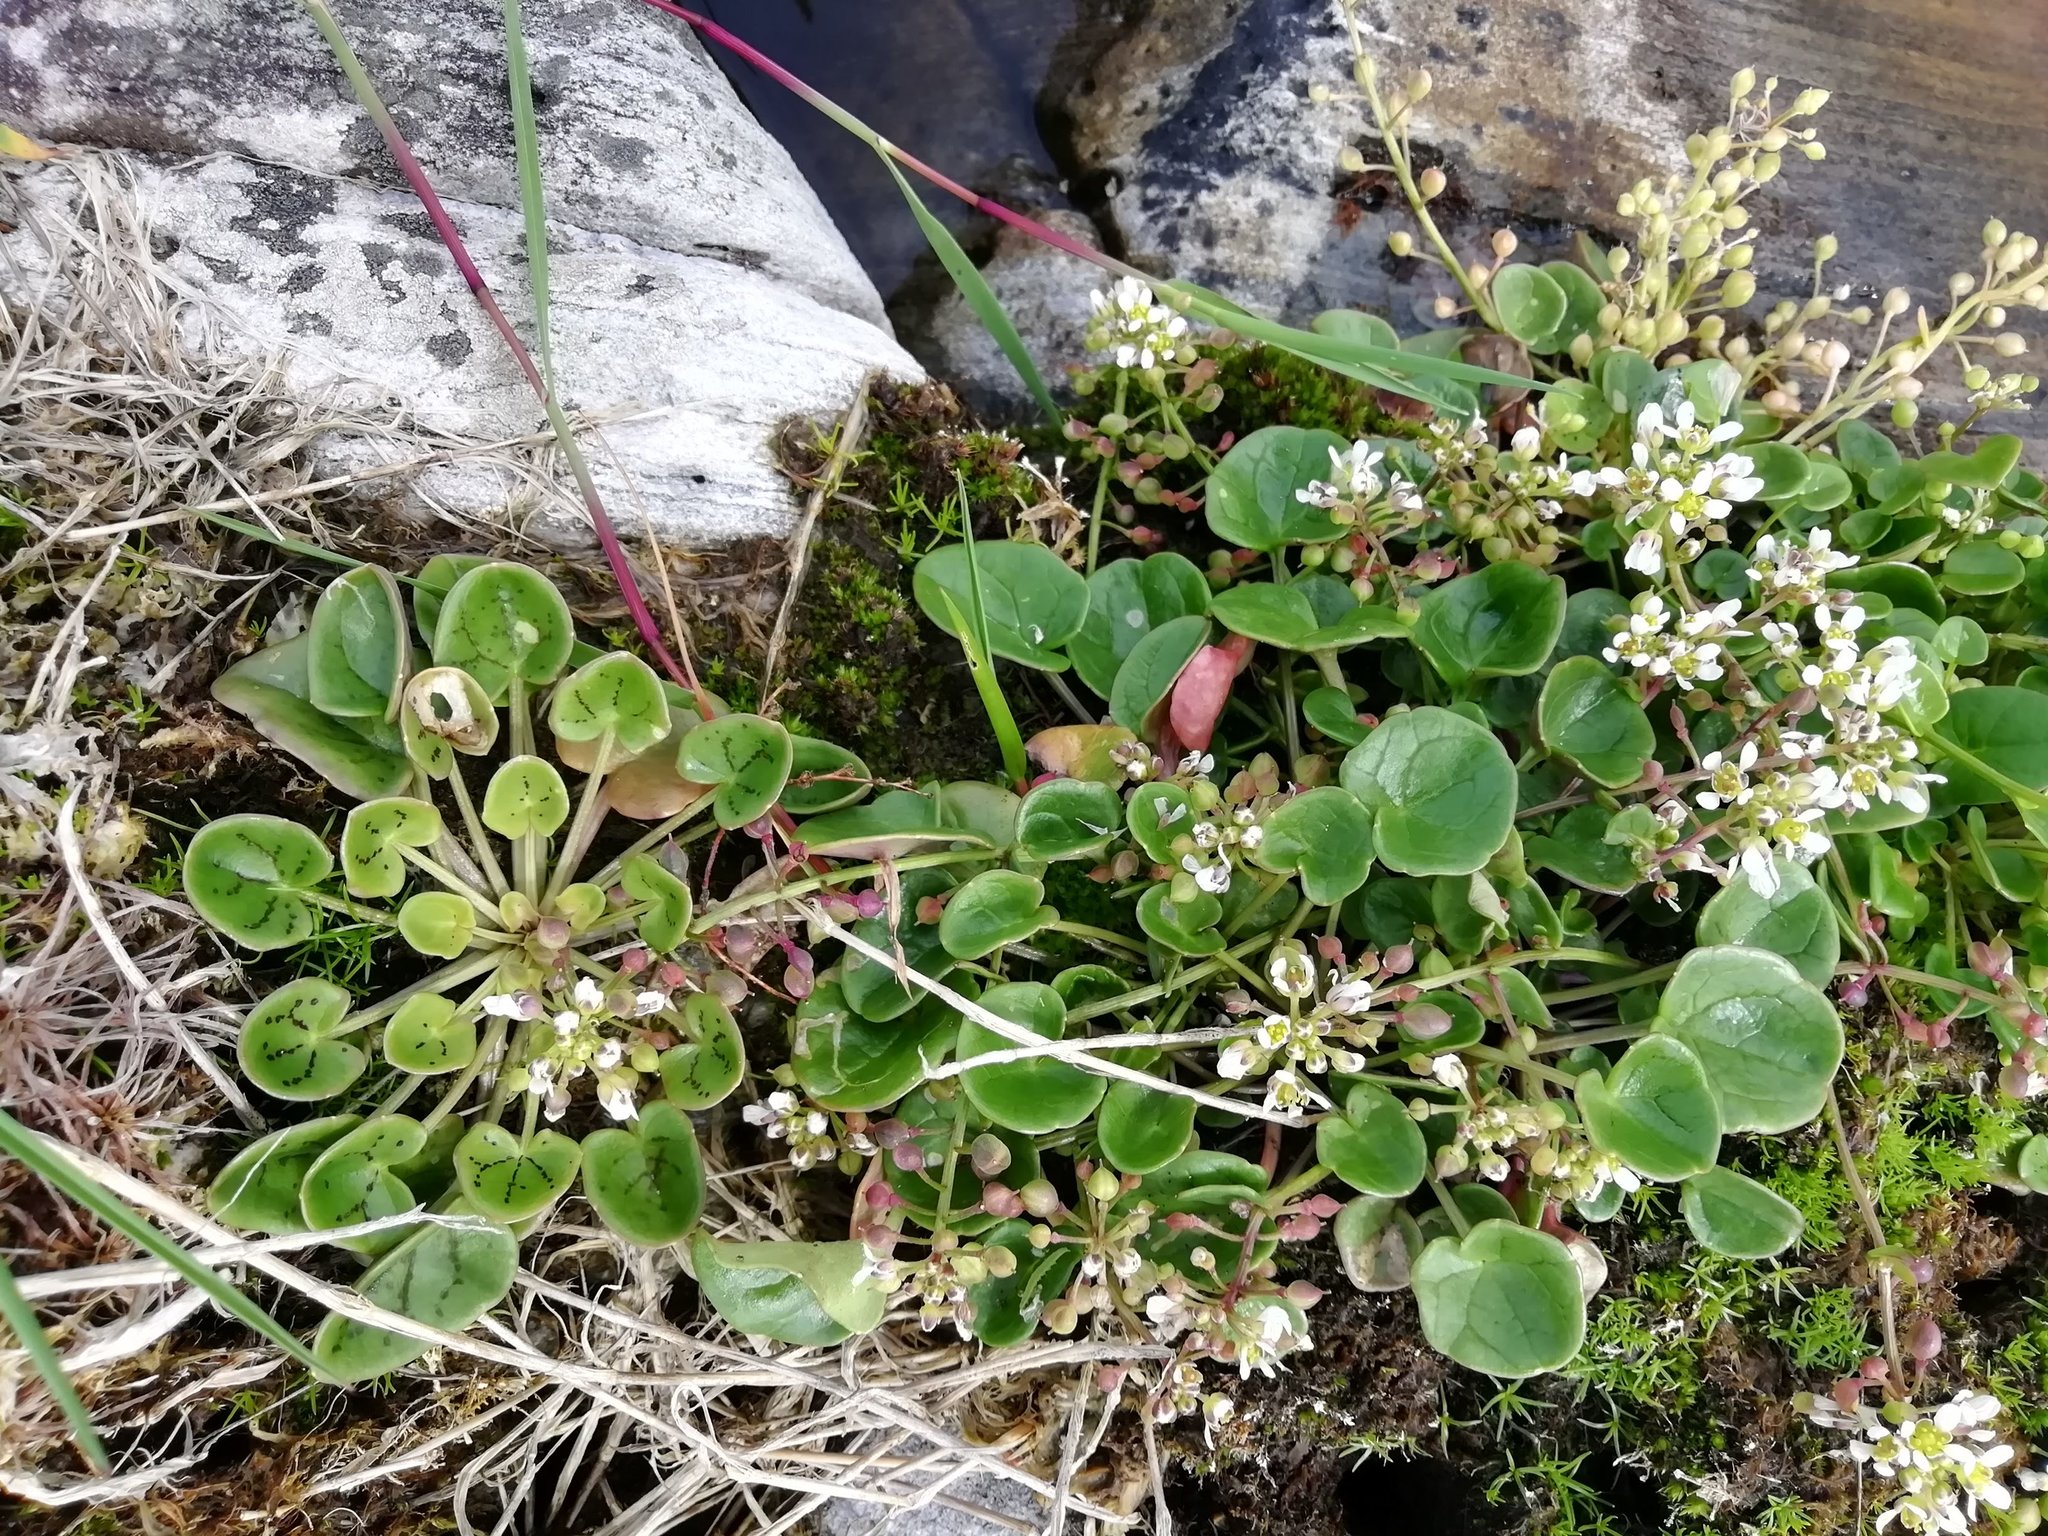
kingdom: Plantae
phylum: Tracheophyta
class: Magnoliopsida
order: Brassicales
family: Brassicaceae
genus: Cochlearia
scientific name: Cochlearia officinalis
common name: Scurvy-grass
